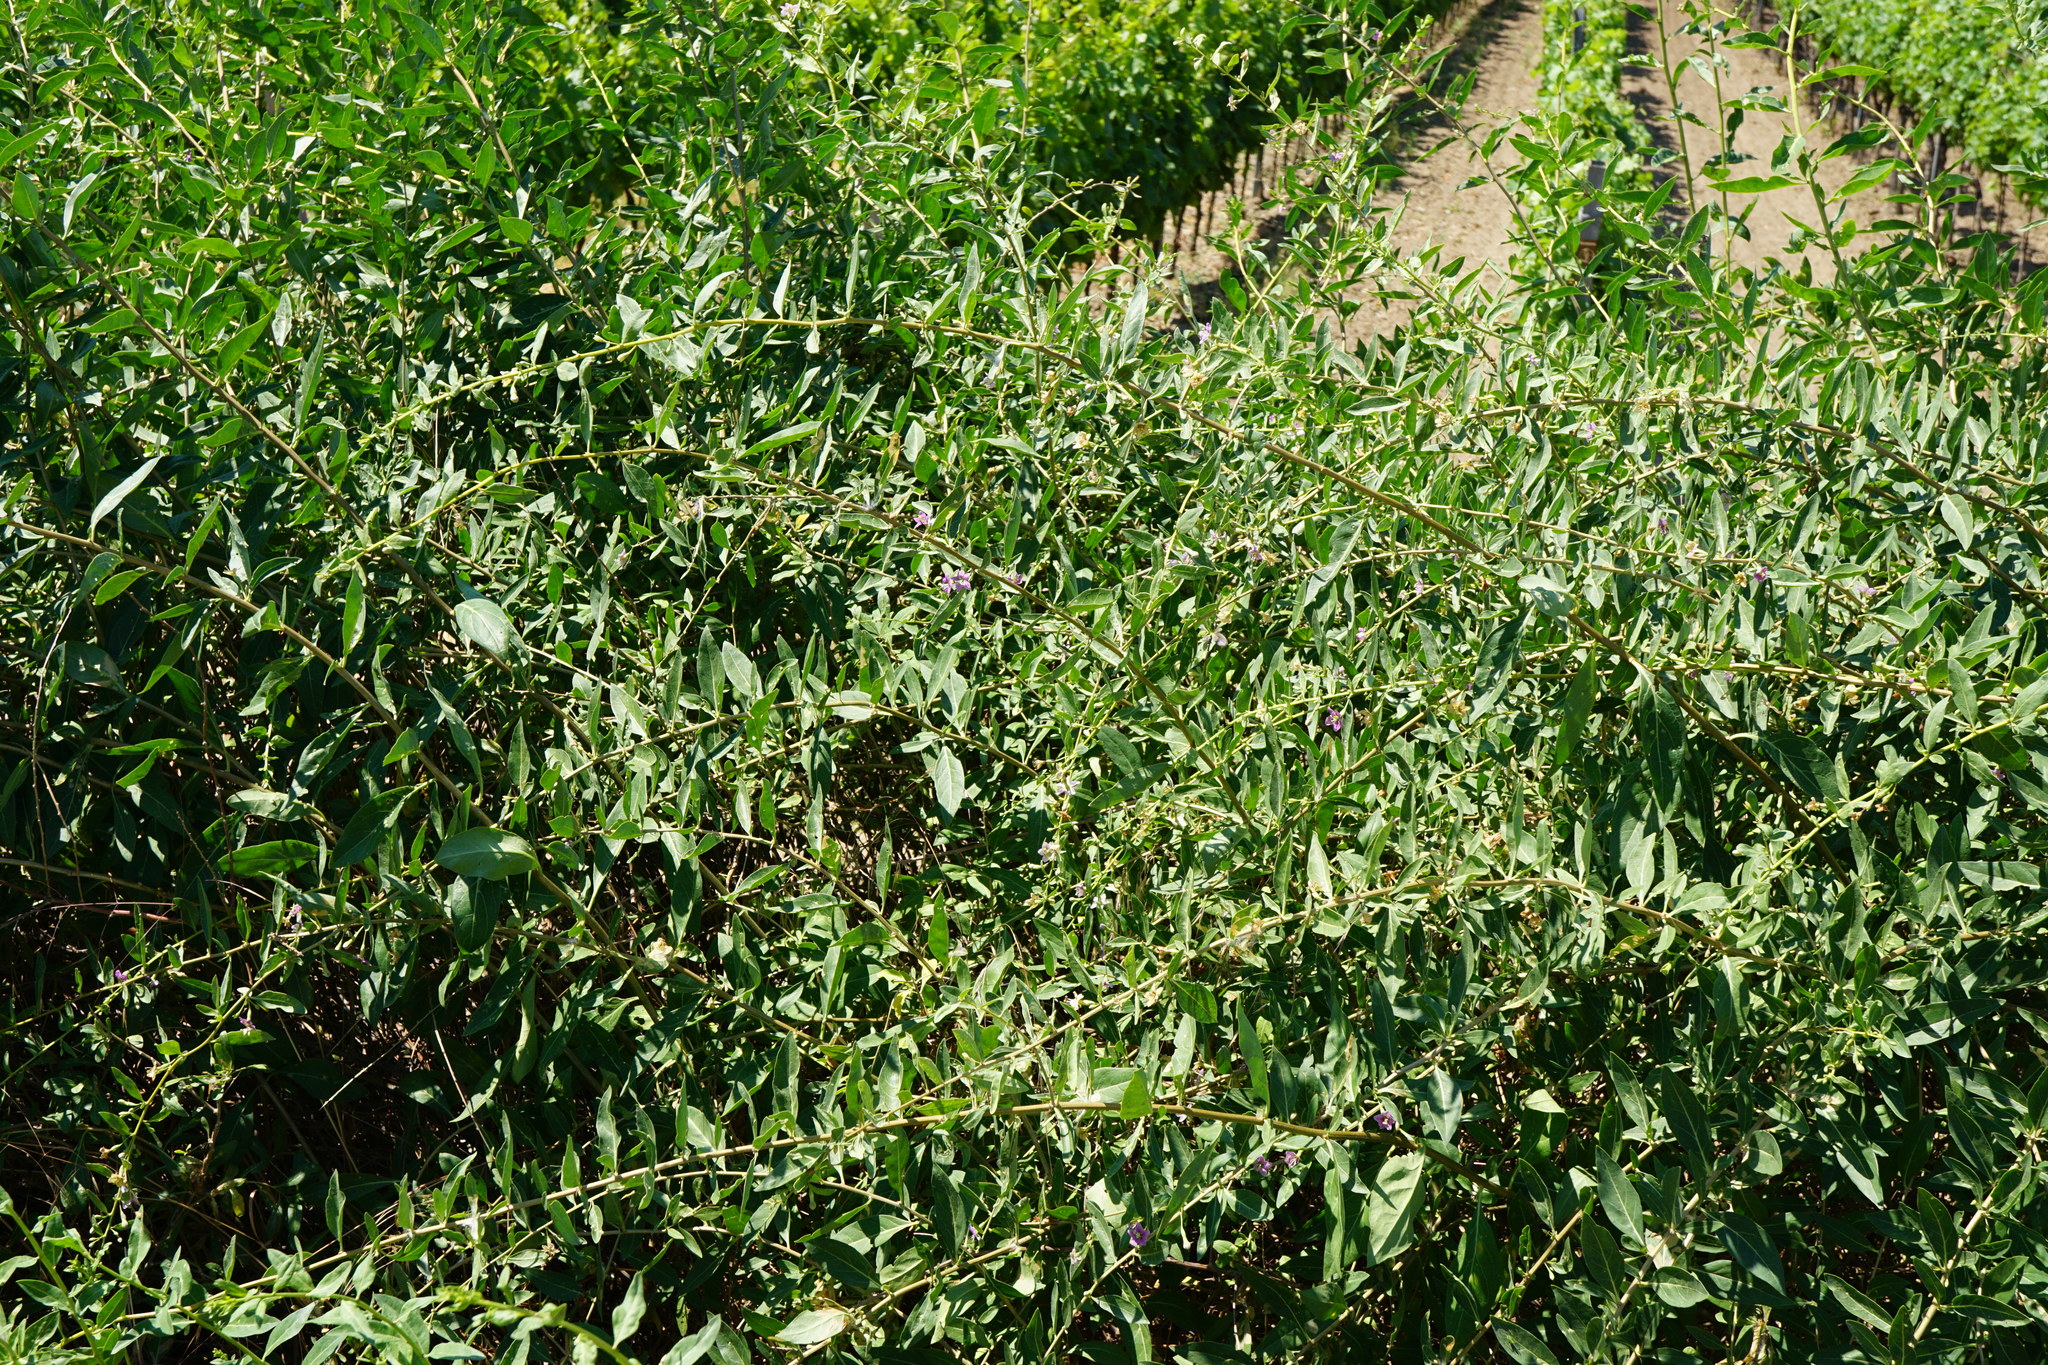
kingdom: Plantae
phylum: Tracheophyta
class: Magnoliopsida
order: Solanales
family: Solanaceae
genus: Lycium
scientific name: Lycium barbarum
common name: Duke of argyll's teaplant
